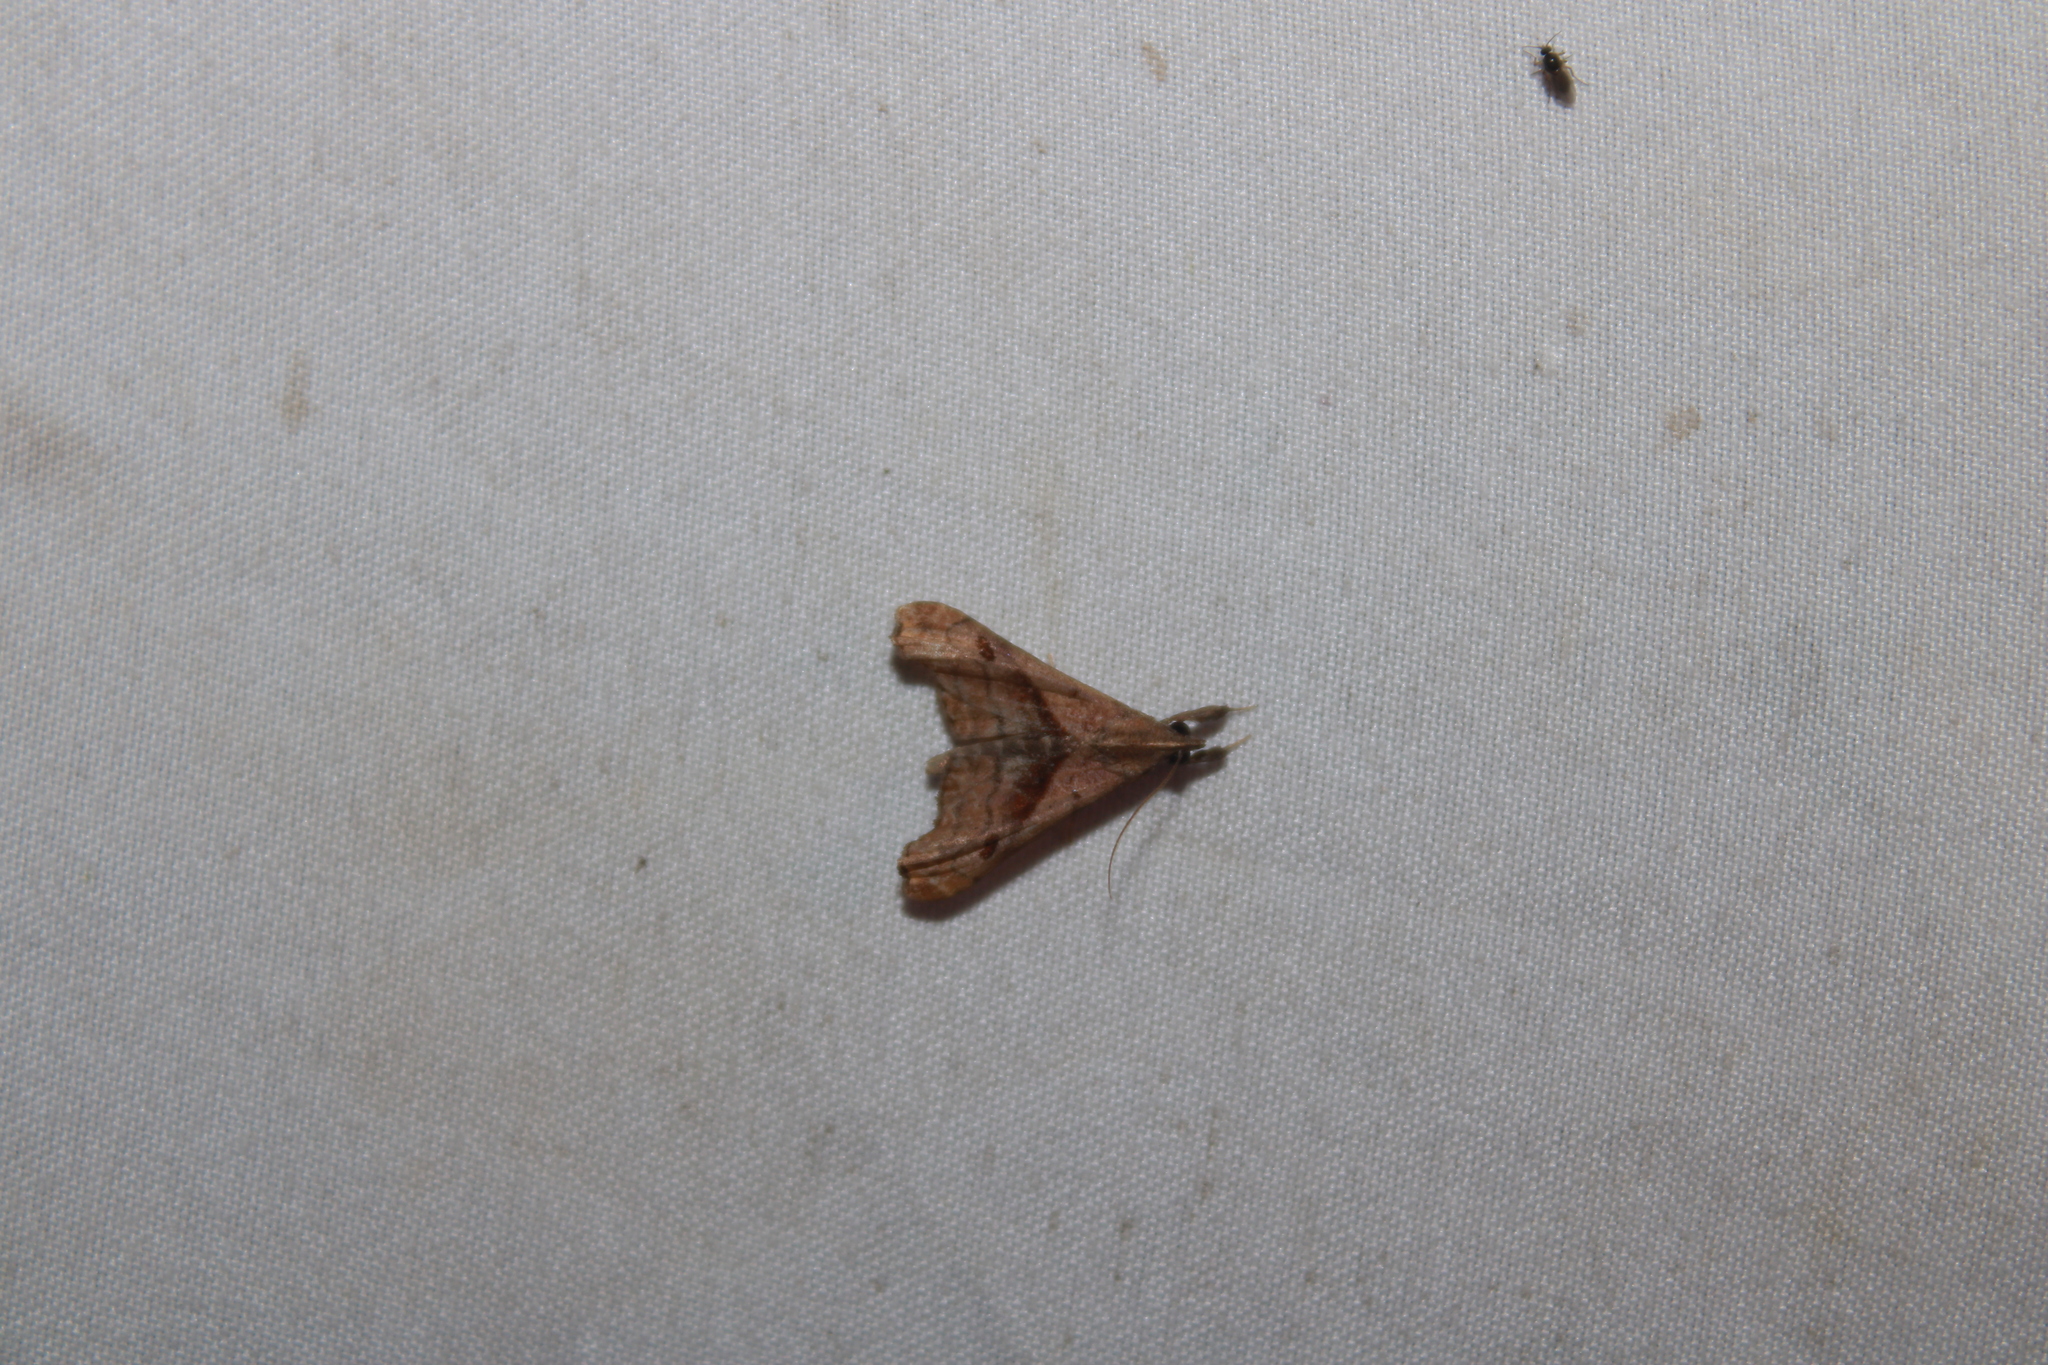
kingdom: Animalia
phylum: Arthropoda
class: Insecta
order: Lepidoptera
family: Erebidae
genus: Palthis
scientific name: Palthis angulalis
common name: Dark-spotted palthis moth
